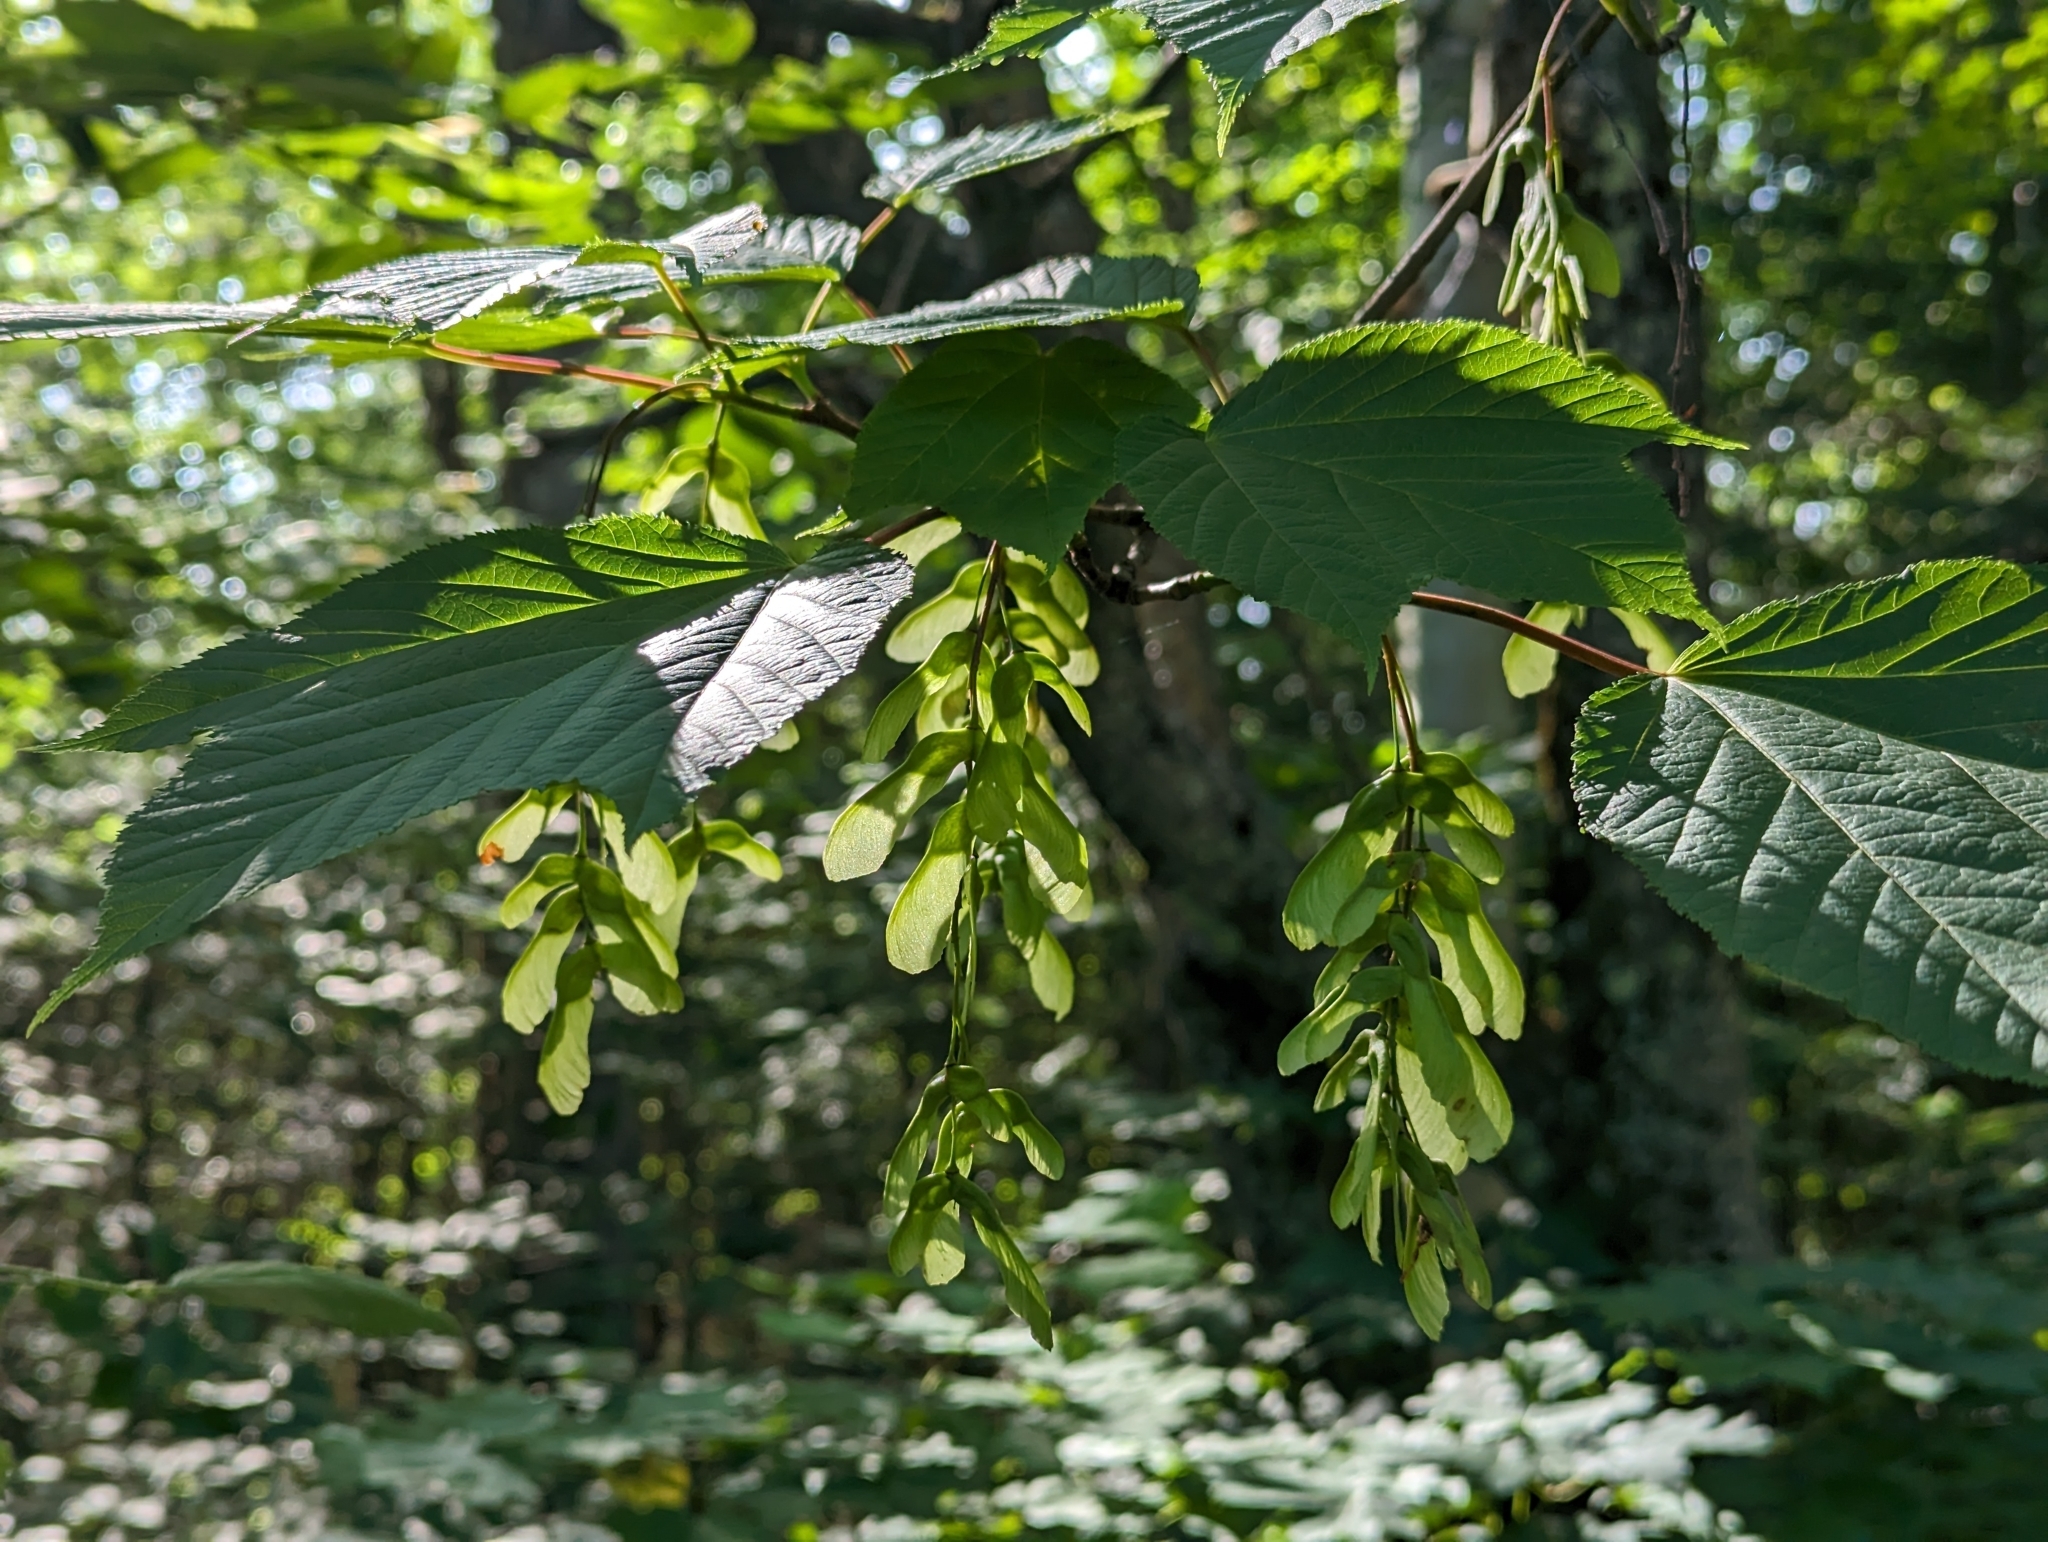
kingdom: Plantae
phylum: Tracheophyta
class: Magnoliopsida
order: Sapindales
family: Sapindaceae
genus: Acer
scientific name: Acer pensylvanicum
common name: Moosewood
